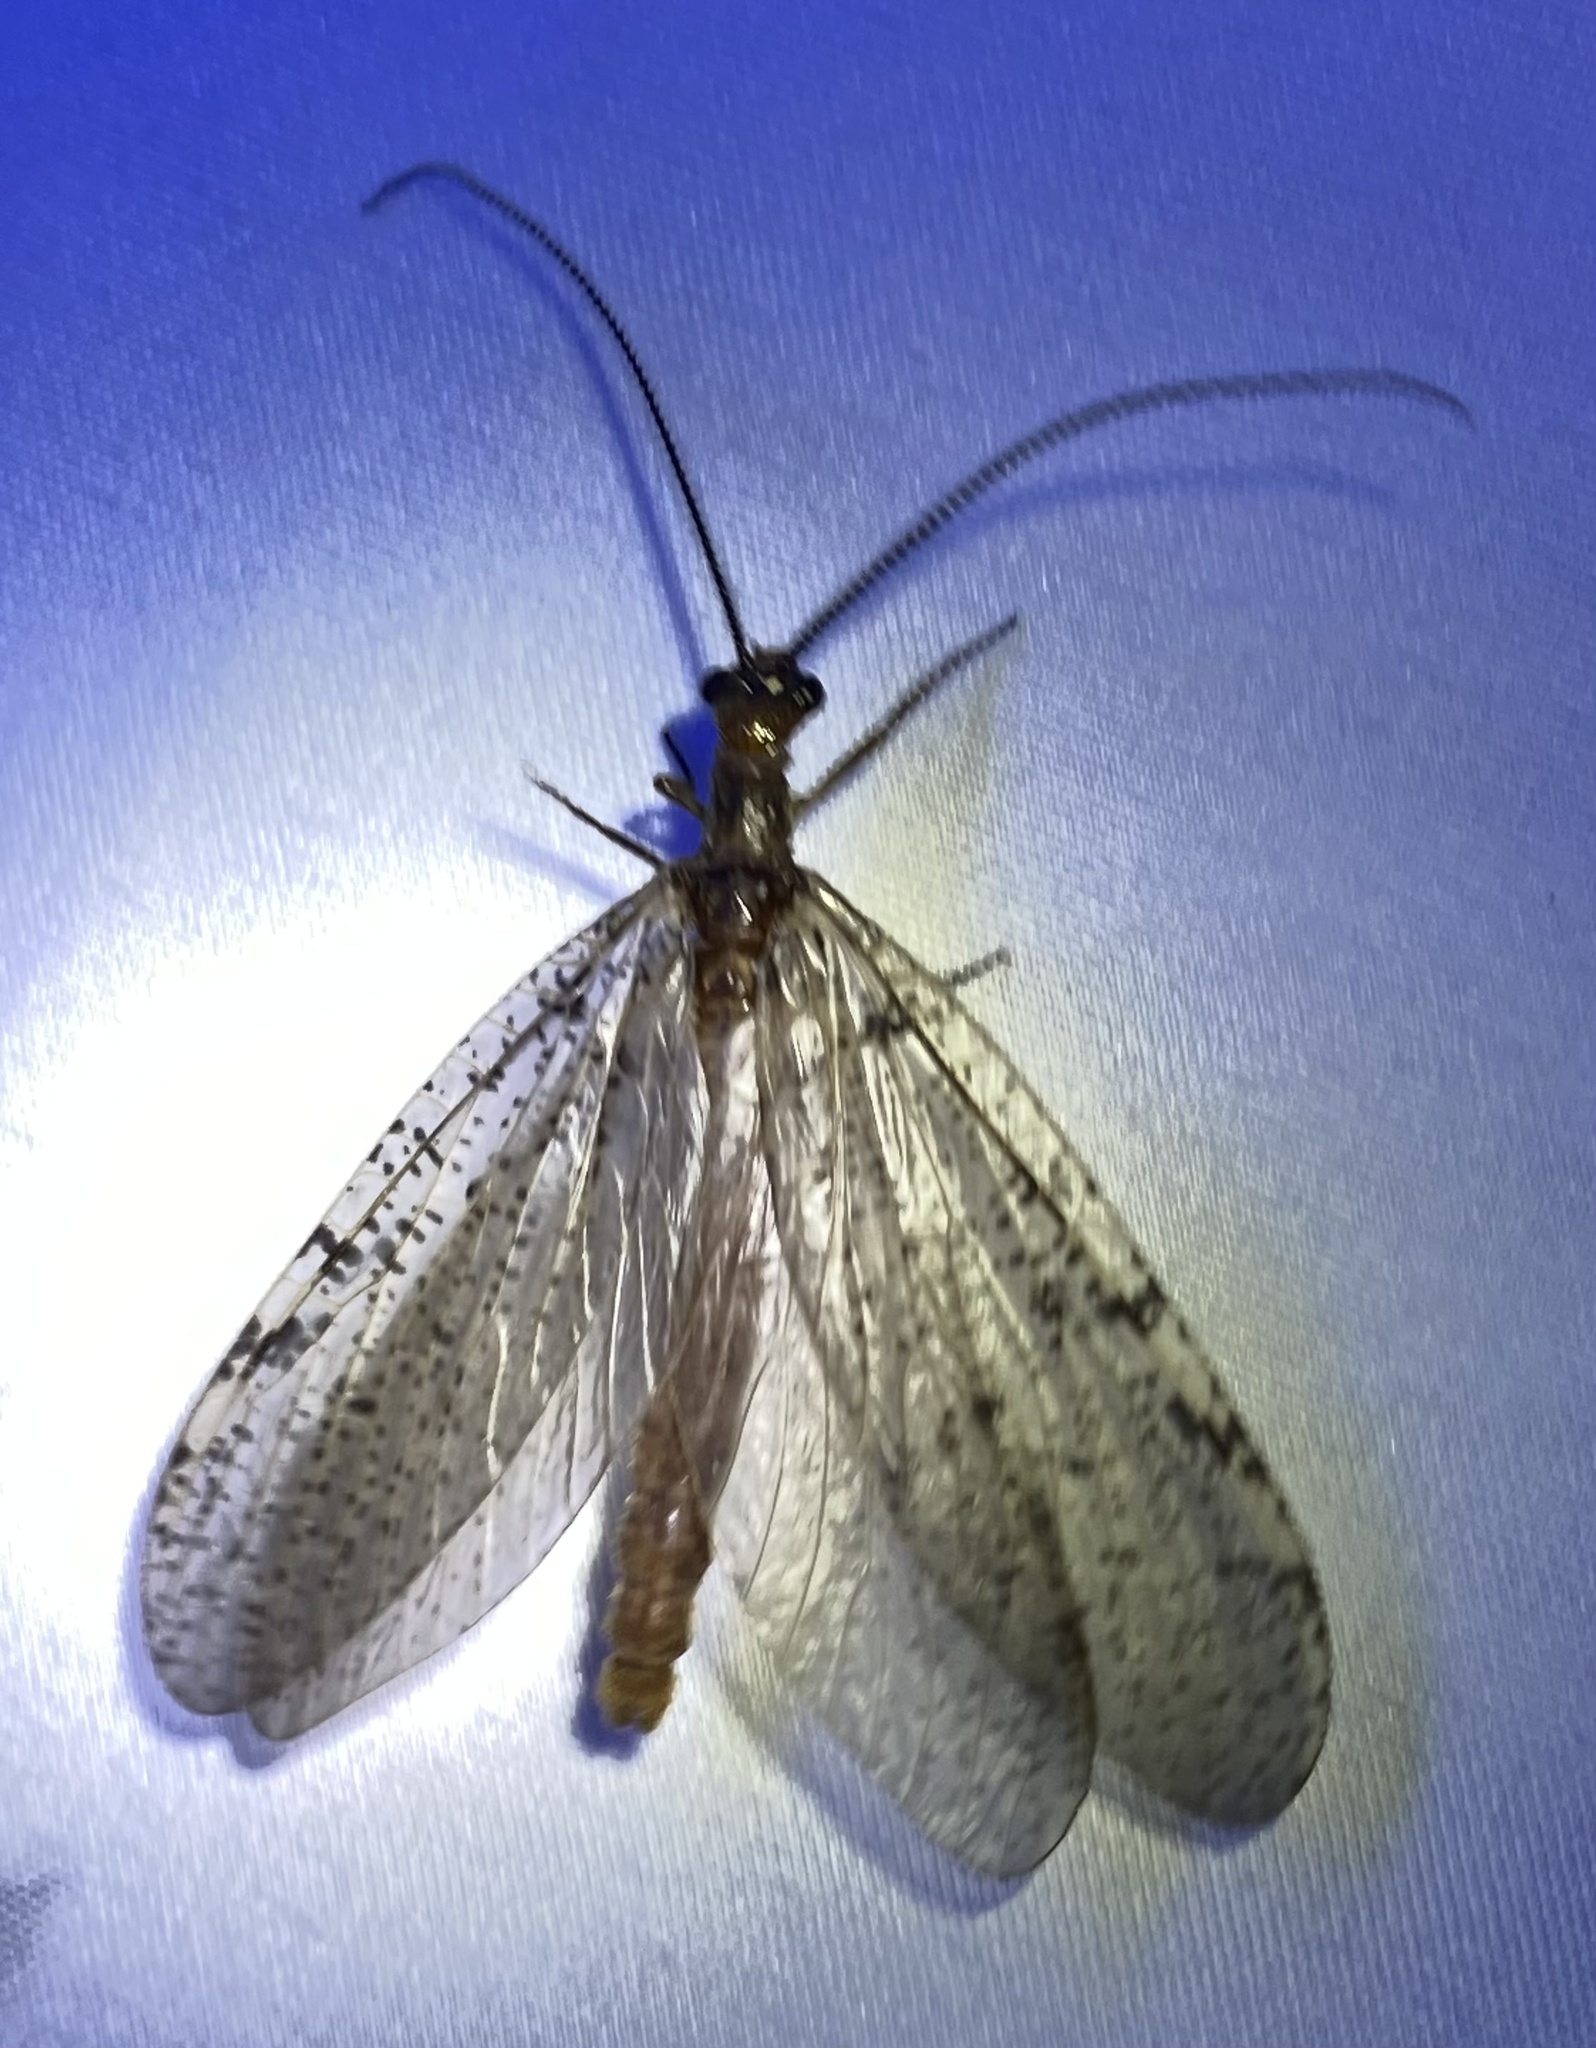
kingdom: Animalia
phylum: Arthropoda
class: Insecta
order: Megaloptera
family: Corydalidae
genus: Neohermes
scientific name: Neohermes concolor
